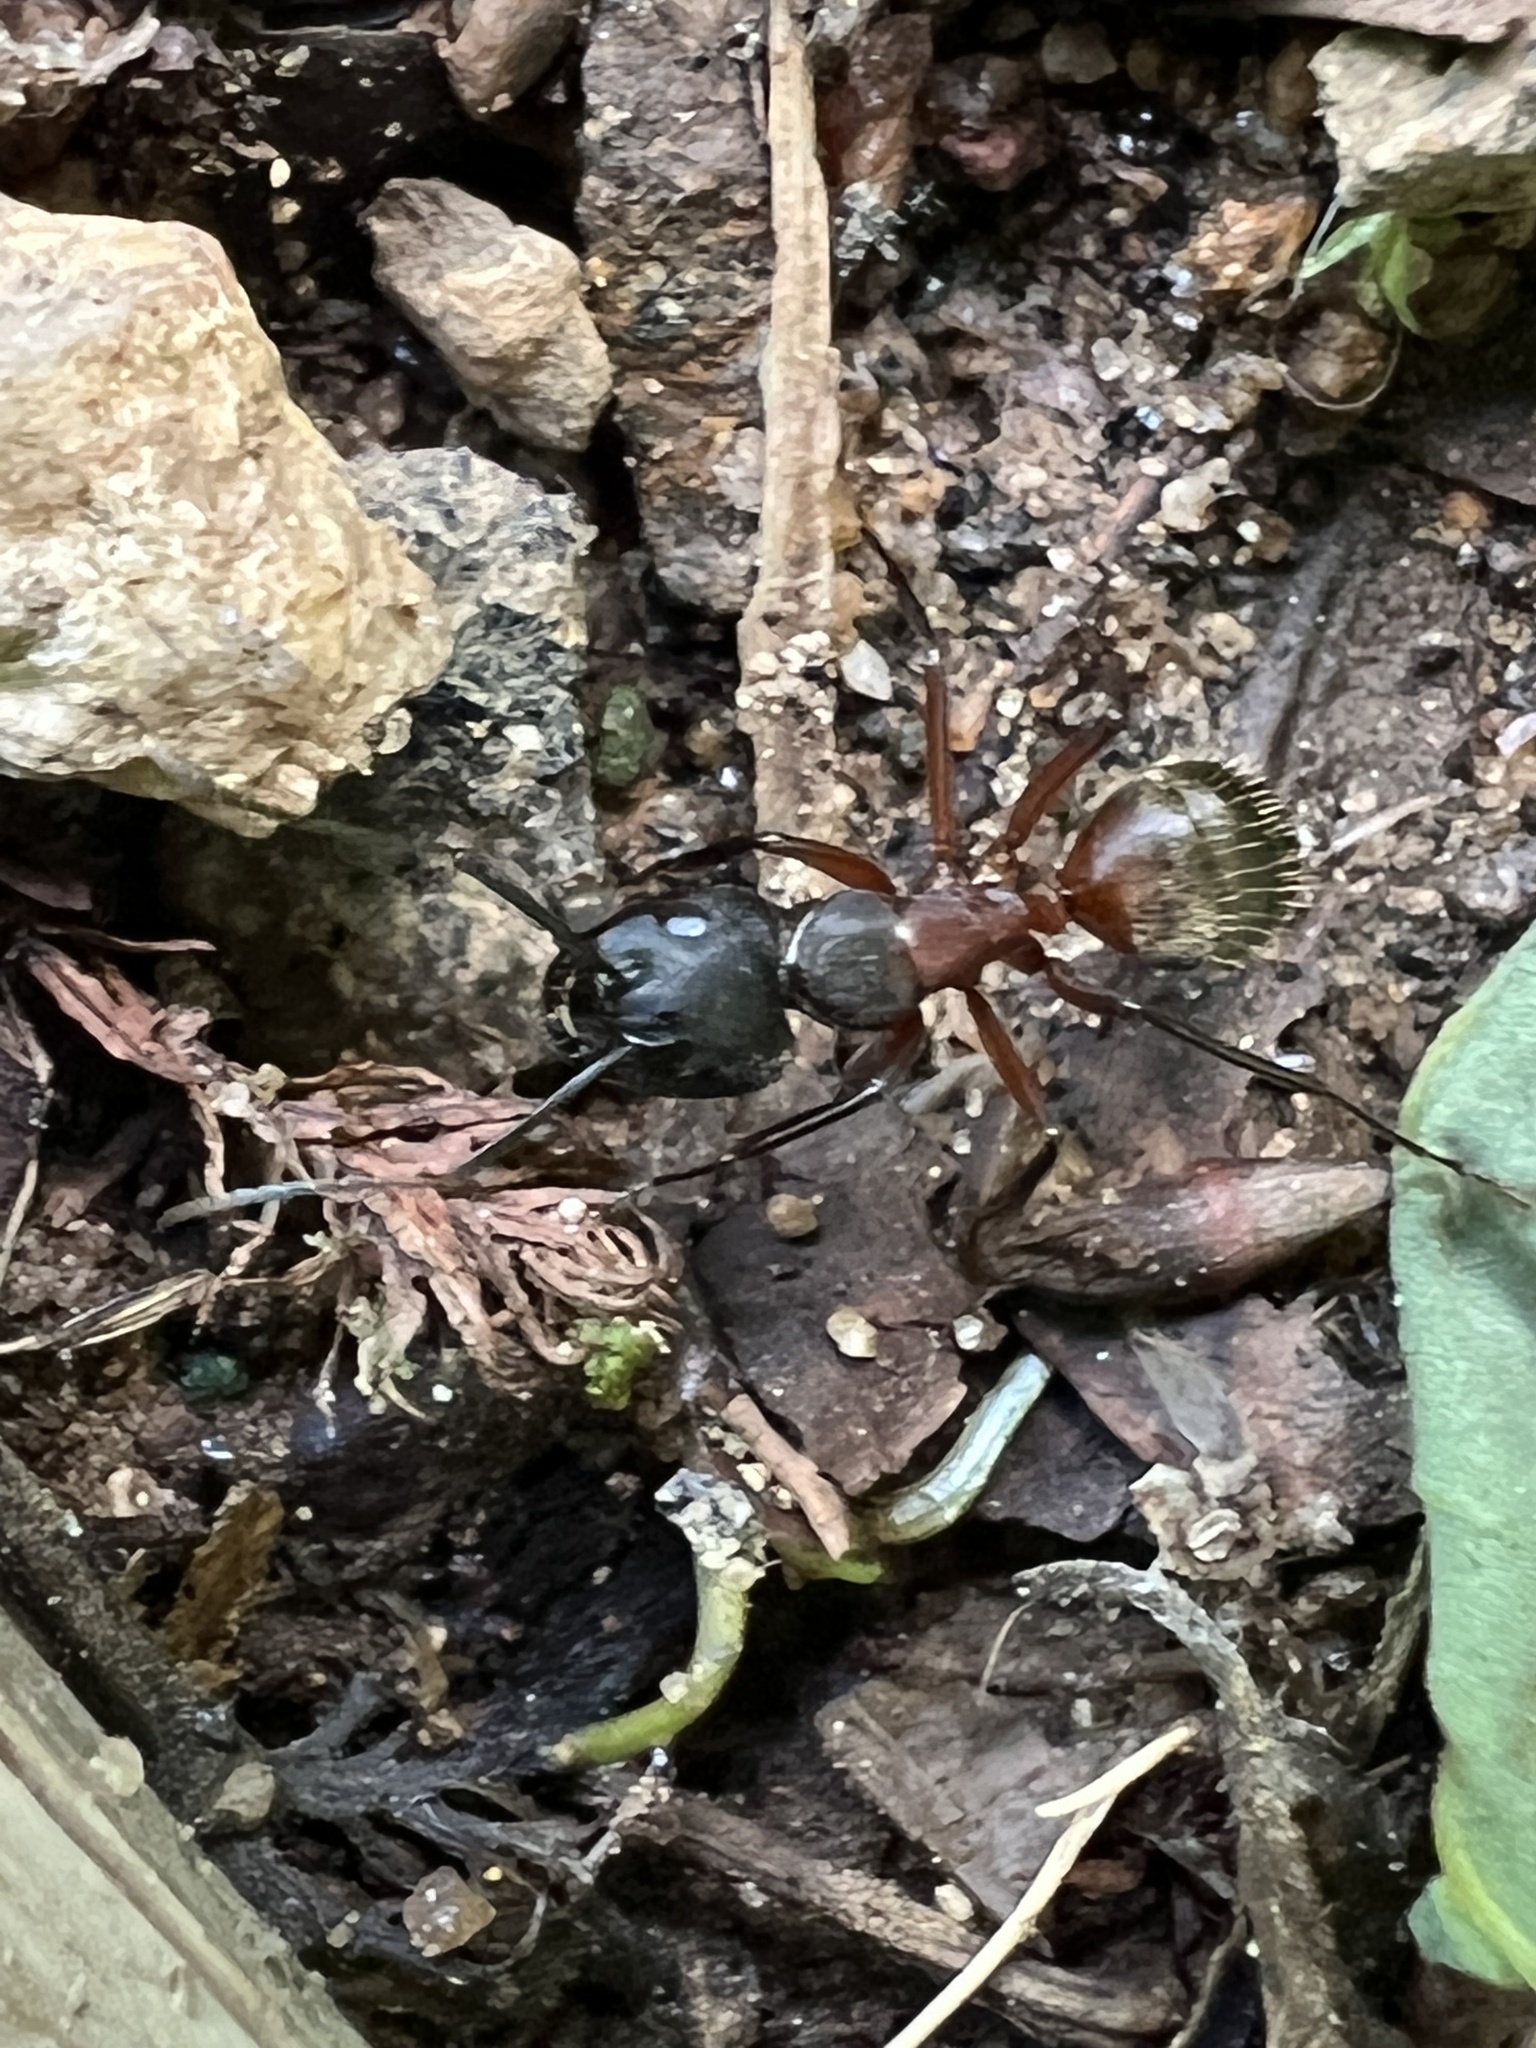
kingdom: Animalia
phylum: Arthropoda
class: Insecta
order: Hymenoptera
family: Formicidae
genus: Camponotus
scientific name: Camponotus chromaiodes
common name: Red carpenter ant
